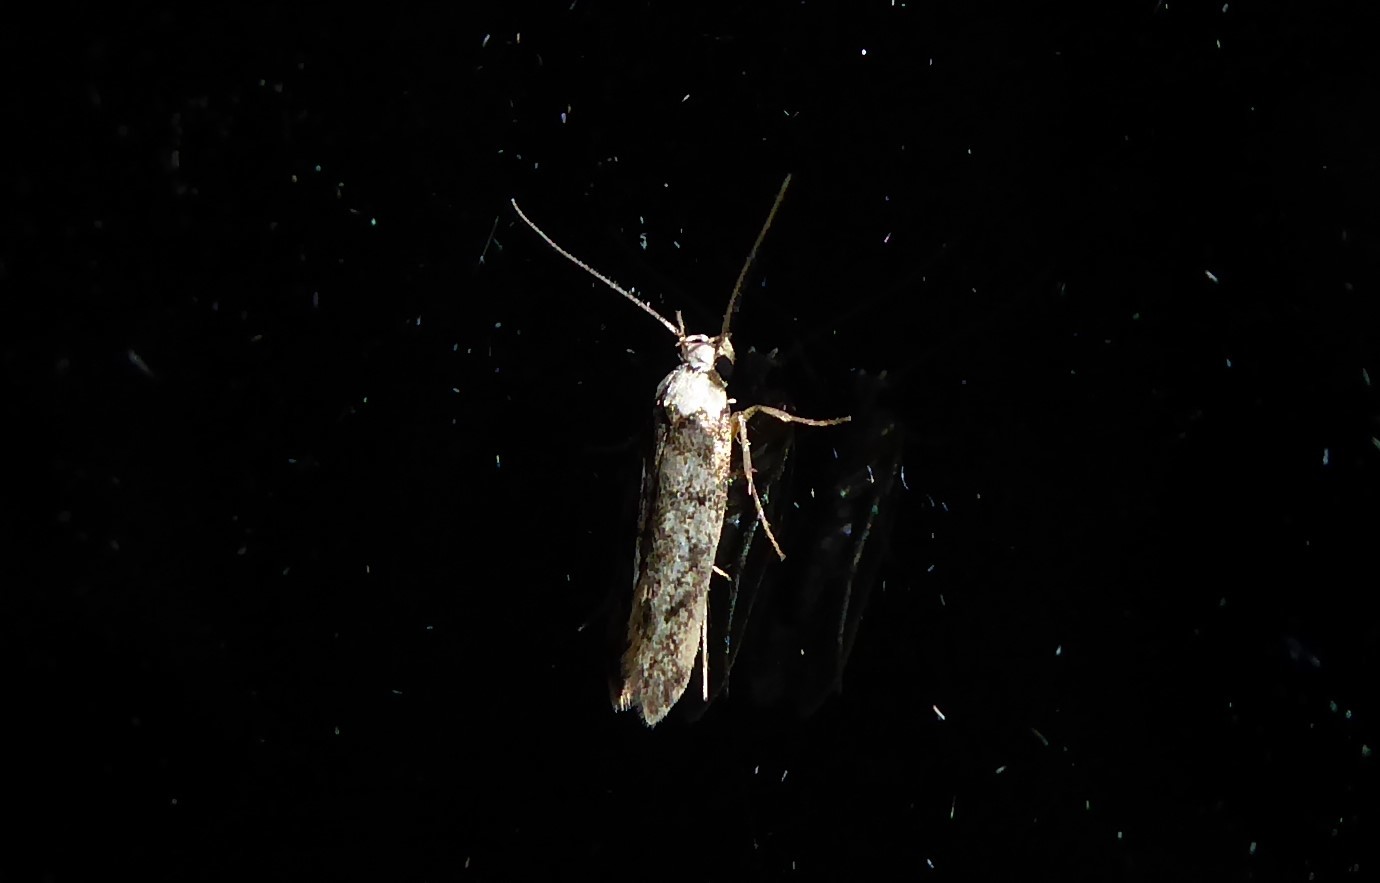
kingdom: Animalia
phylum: Arthropoda
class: Insecta
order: Lepidoptera
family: Oecophoridae
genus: Endrosis
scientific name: Endrosis sarcitrella
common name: White-shouldered house moth
